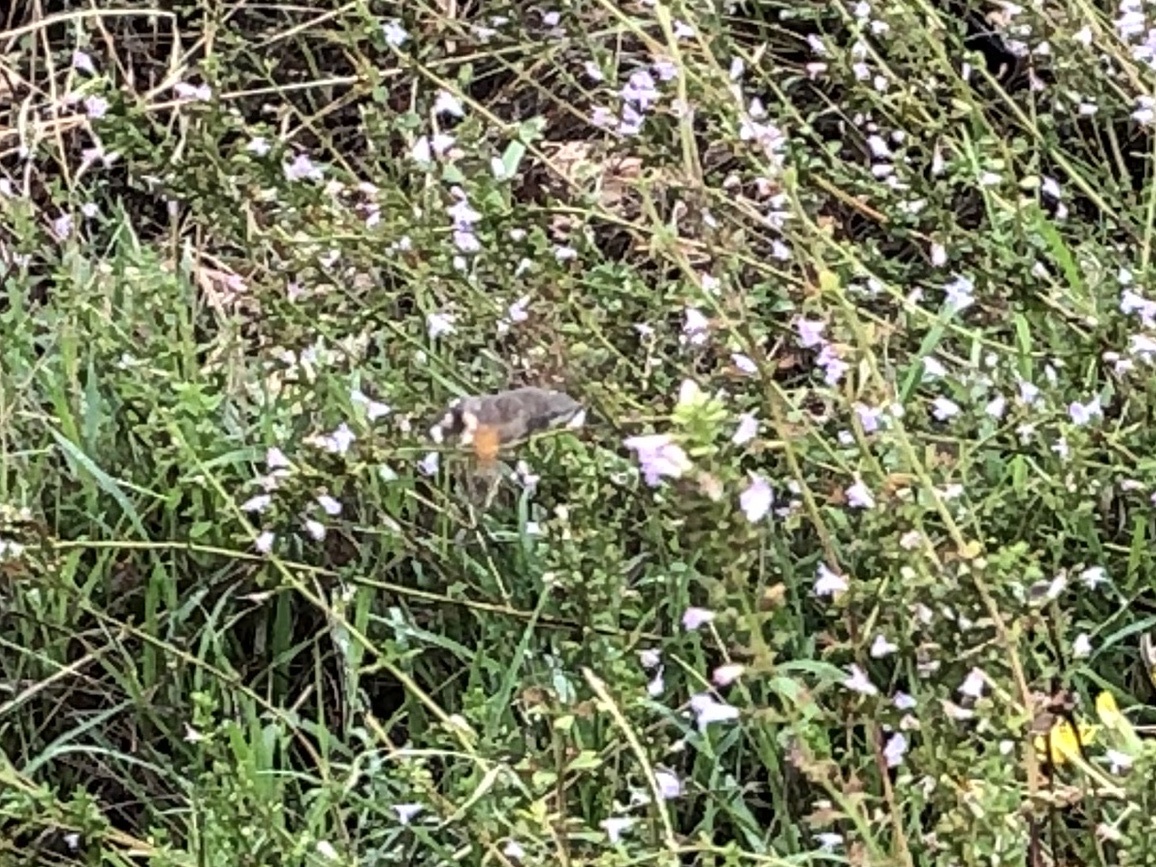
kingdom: Animalia
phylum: Arthropoda
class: Insecta
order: Lepidoptera
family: Sphingidae
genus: Macroglossum
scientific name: Macroglossum stellatarum
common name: Humming-bird hawk-moth
